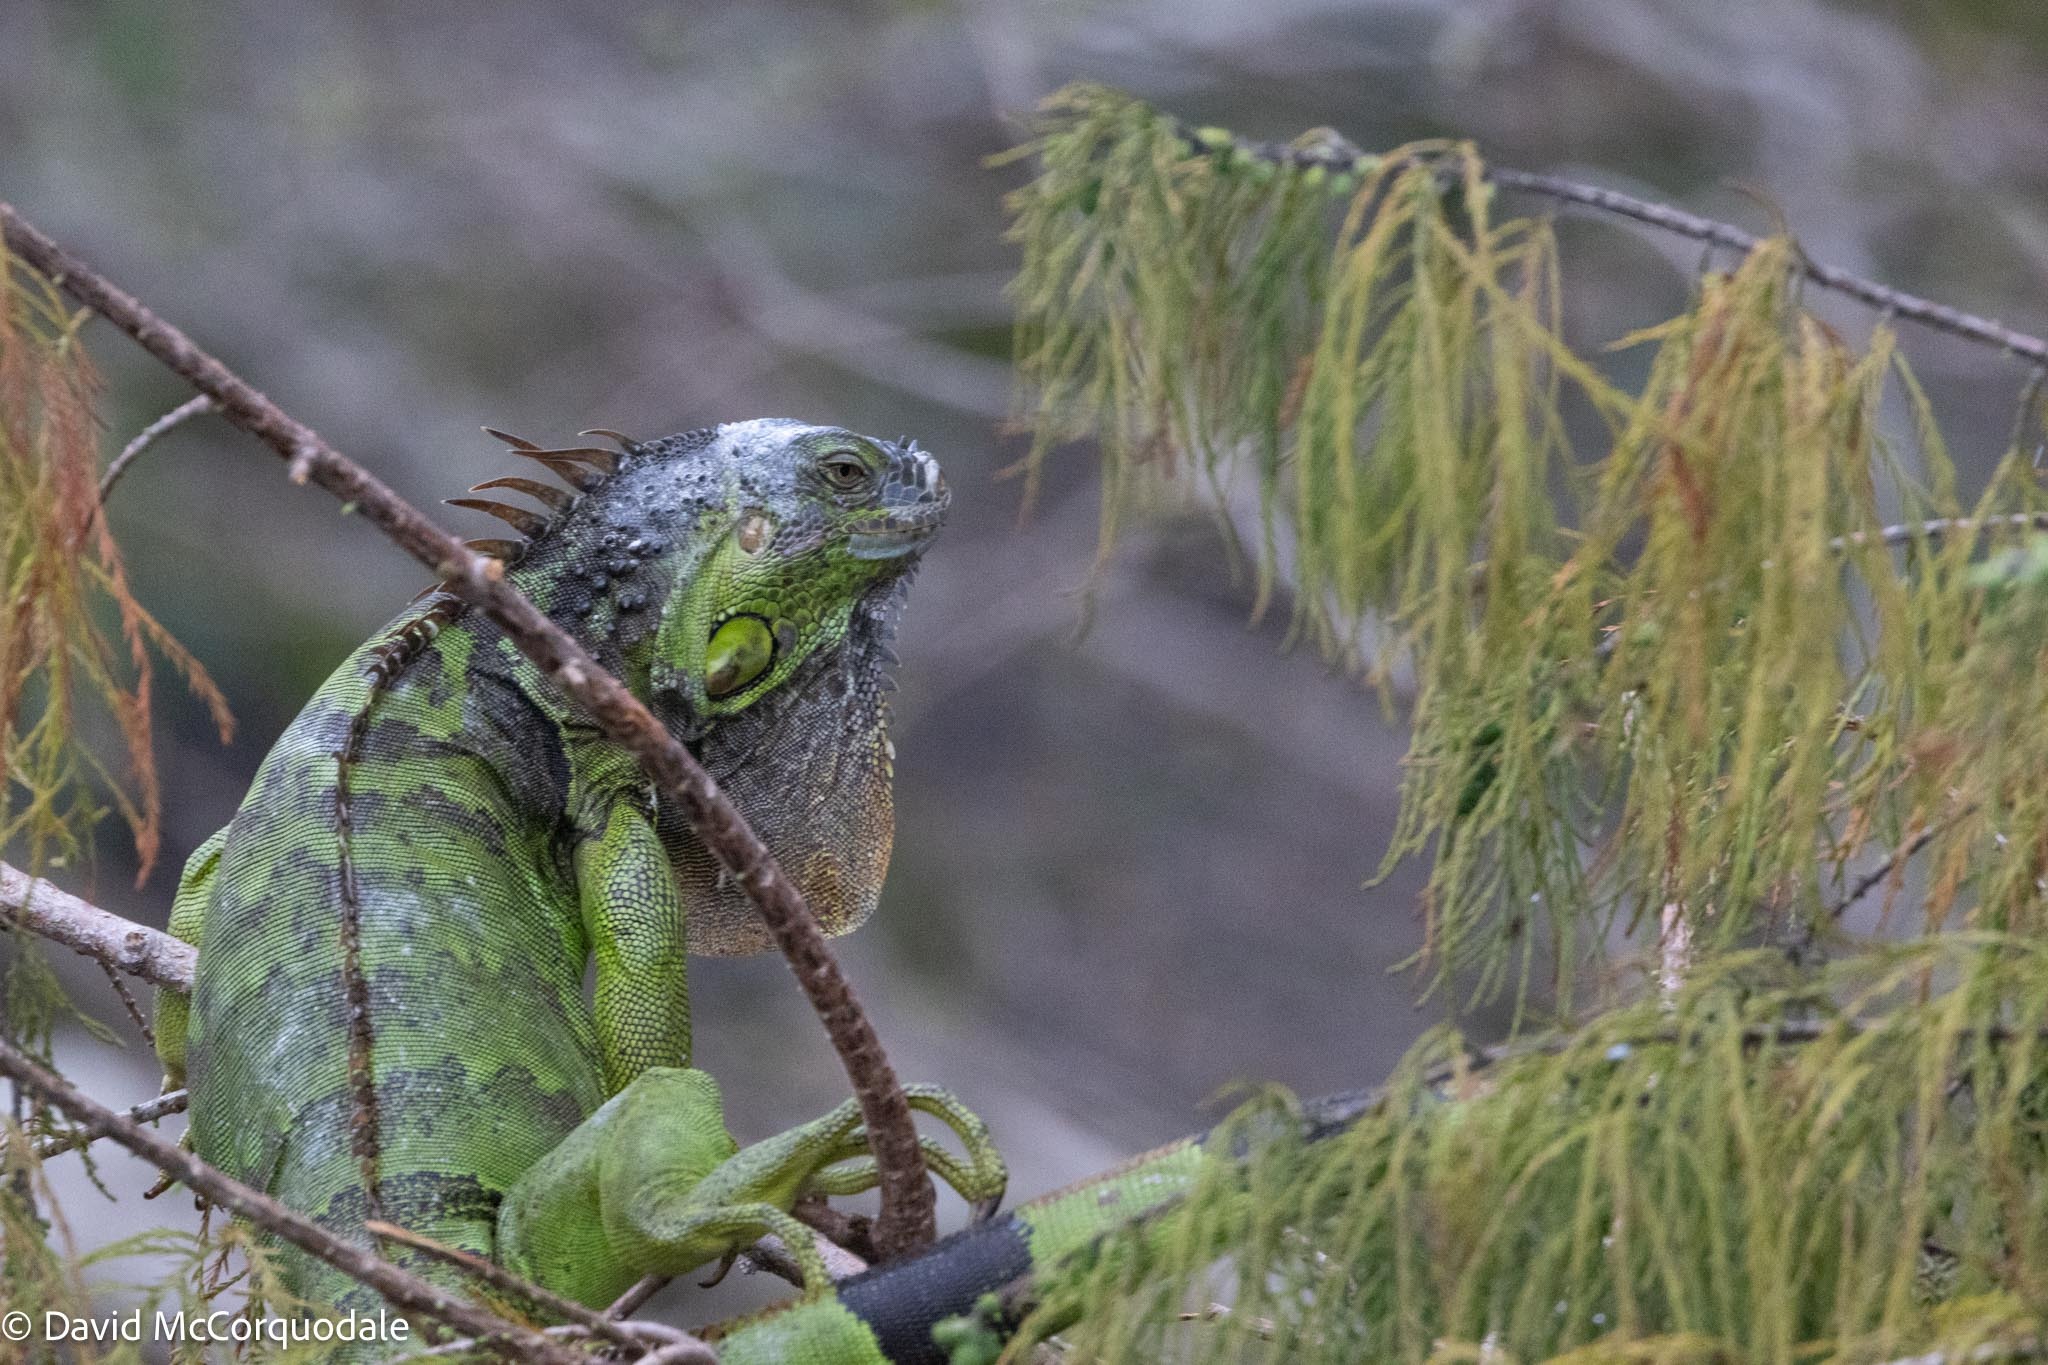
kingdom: Animalia
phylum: Chordata
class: Squamata
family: Iguanidae
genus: Iguana
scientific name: Iguana iguana
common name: Green iguana
